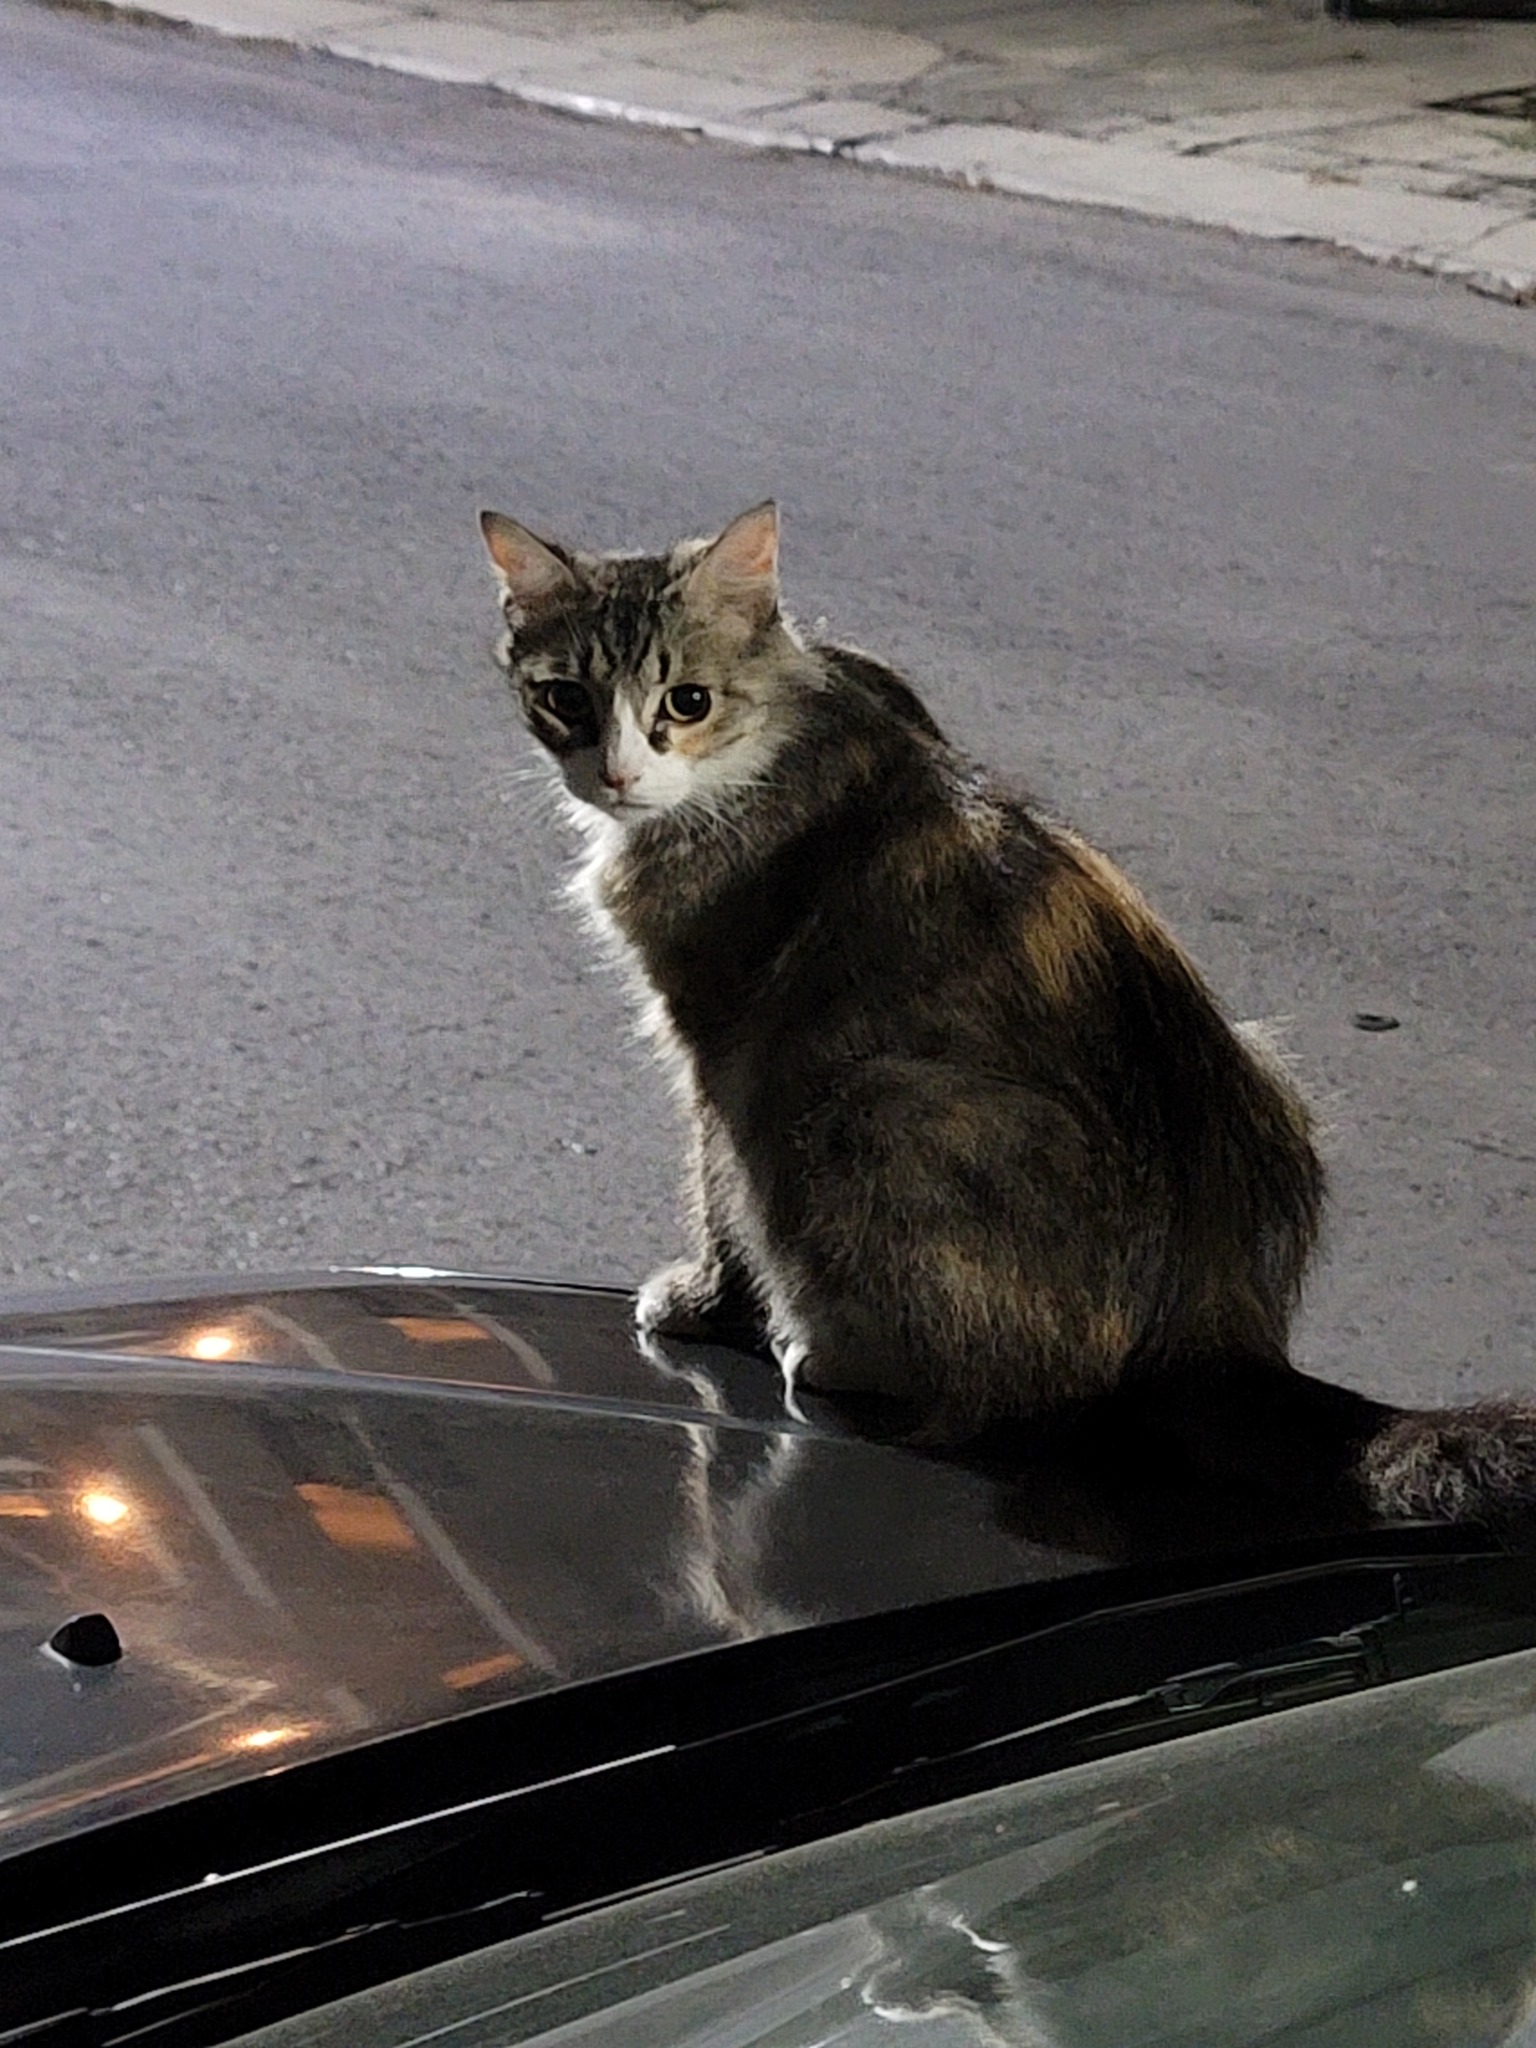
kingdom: Animalia
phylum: Chordata
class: Mammalia
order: Carnivora
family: Felidae
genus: Felis
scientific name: Felis catus
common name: Domestic cat
